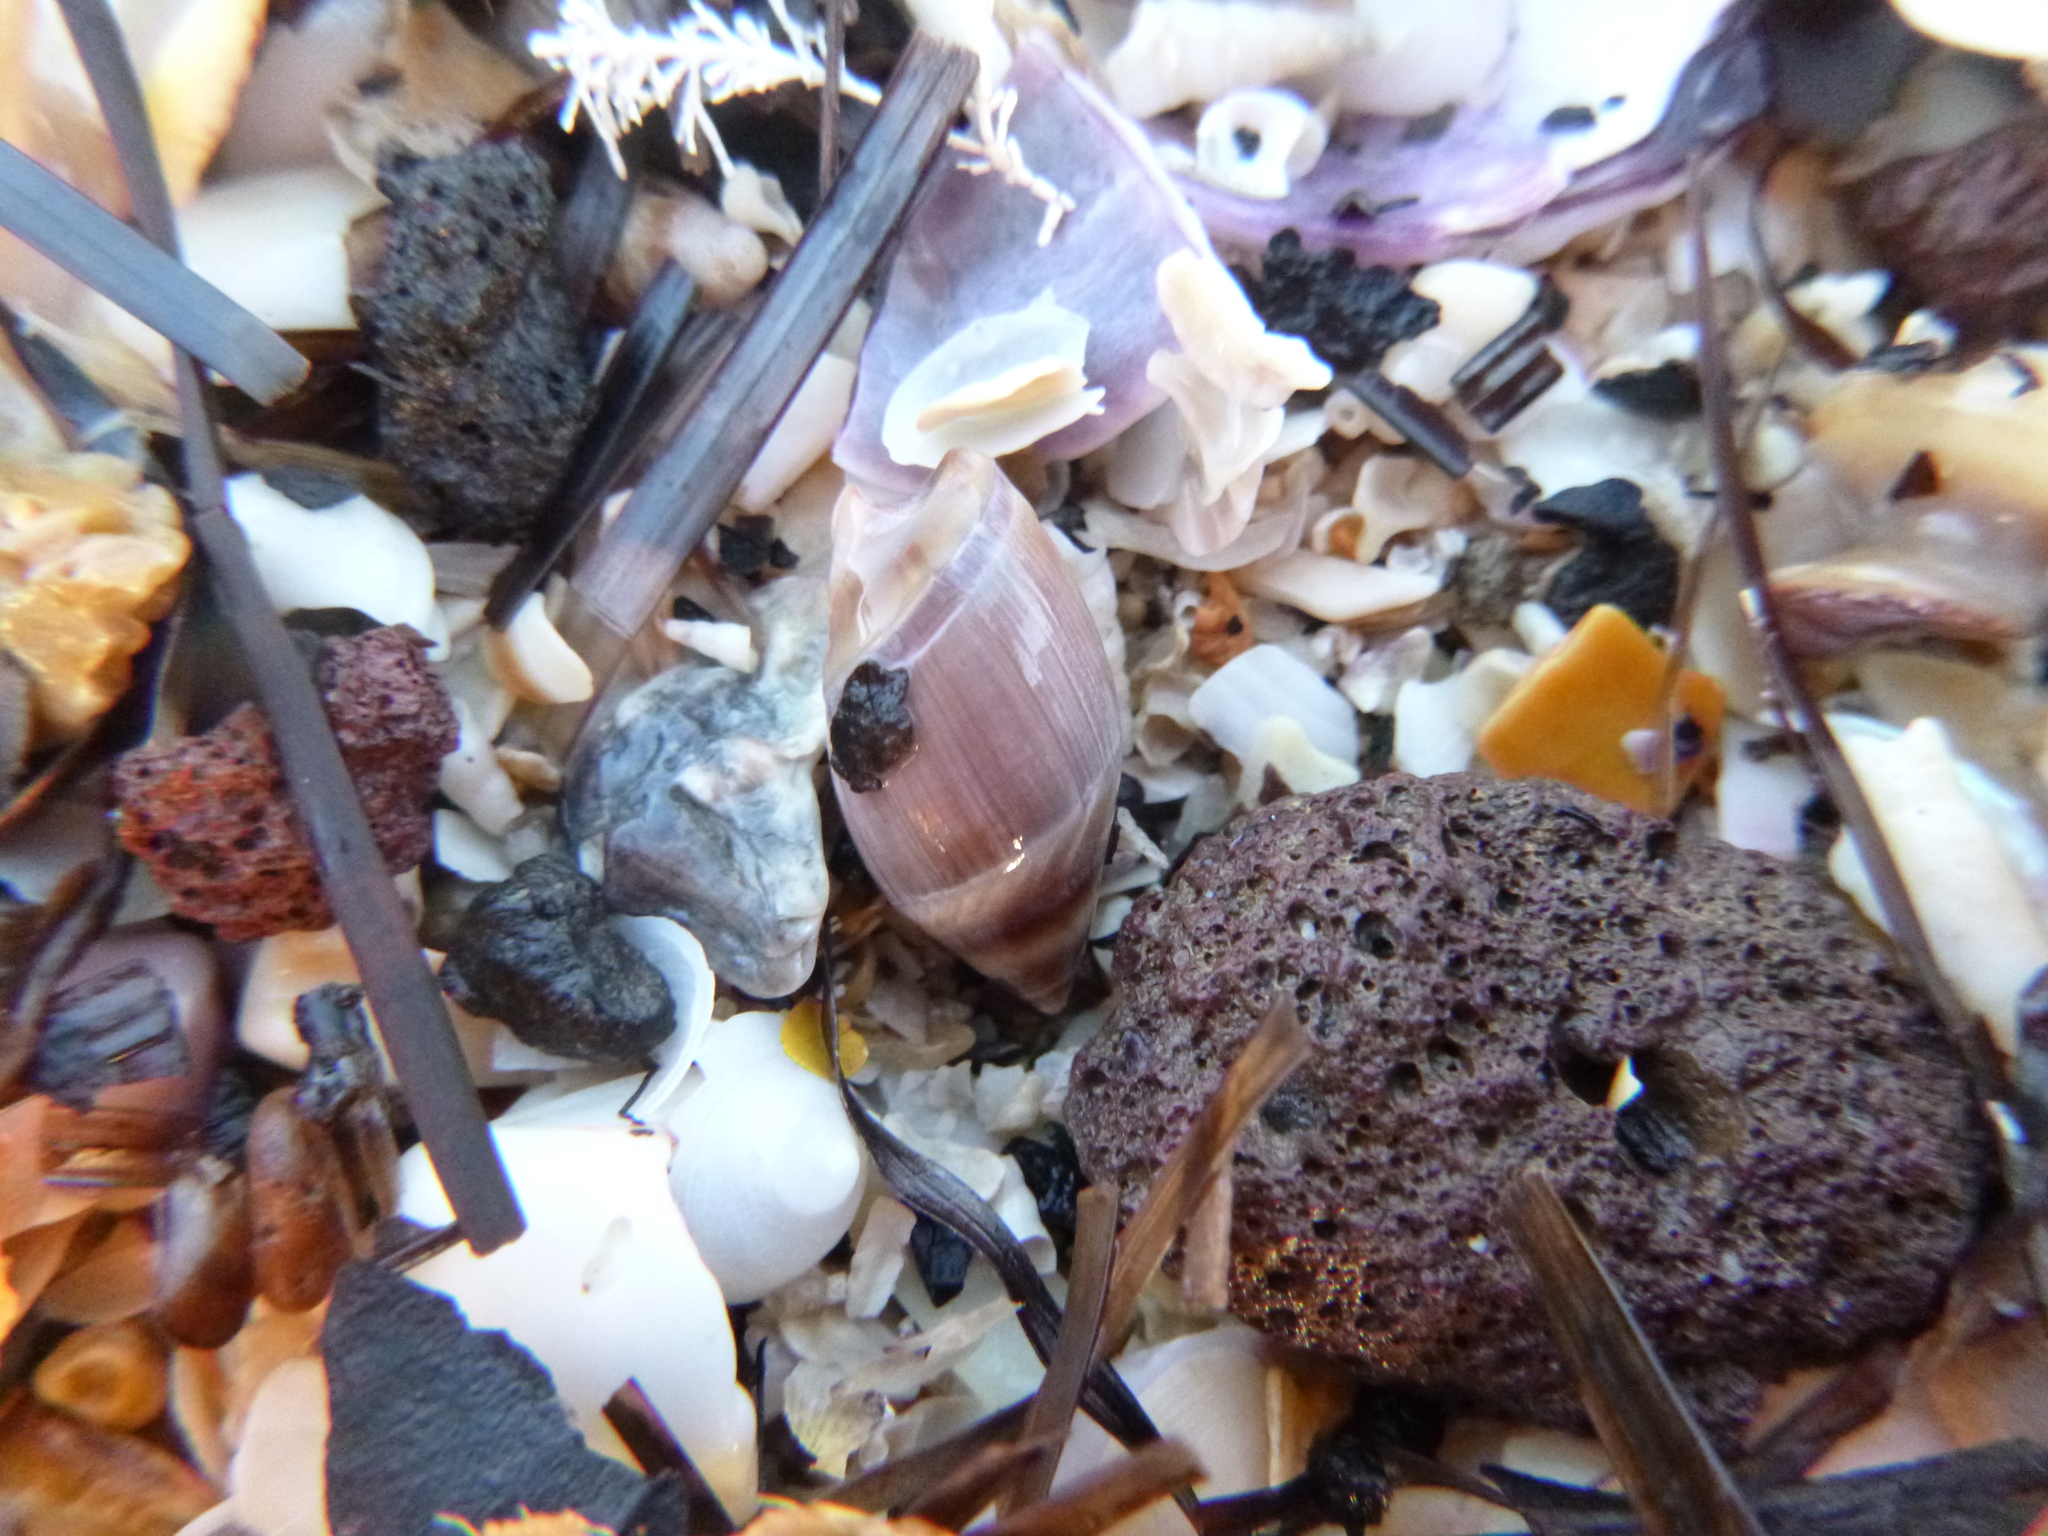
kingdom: Animalia
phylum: Mollusca
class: Gastropoda
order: Neogastropoda
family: Ancillariidae
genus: Amalda
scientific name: Amalda australis
